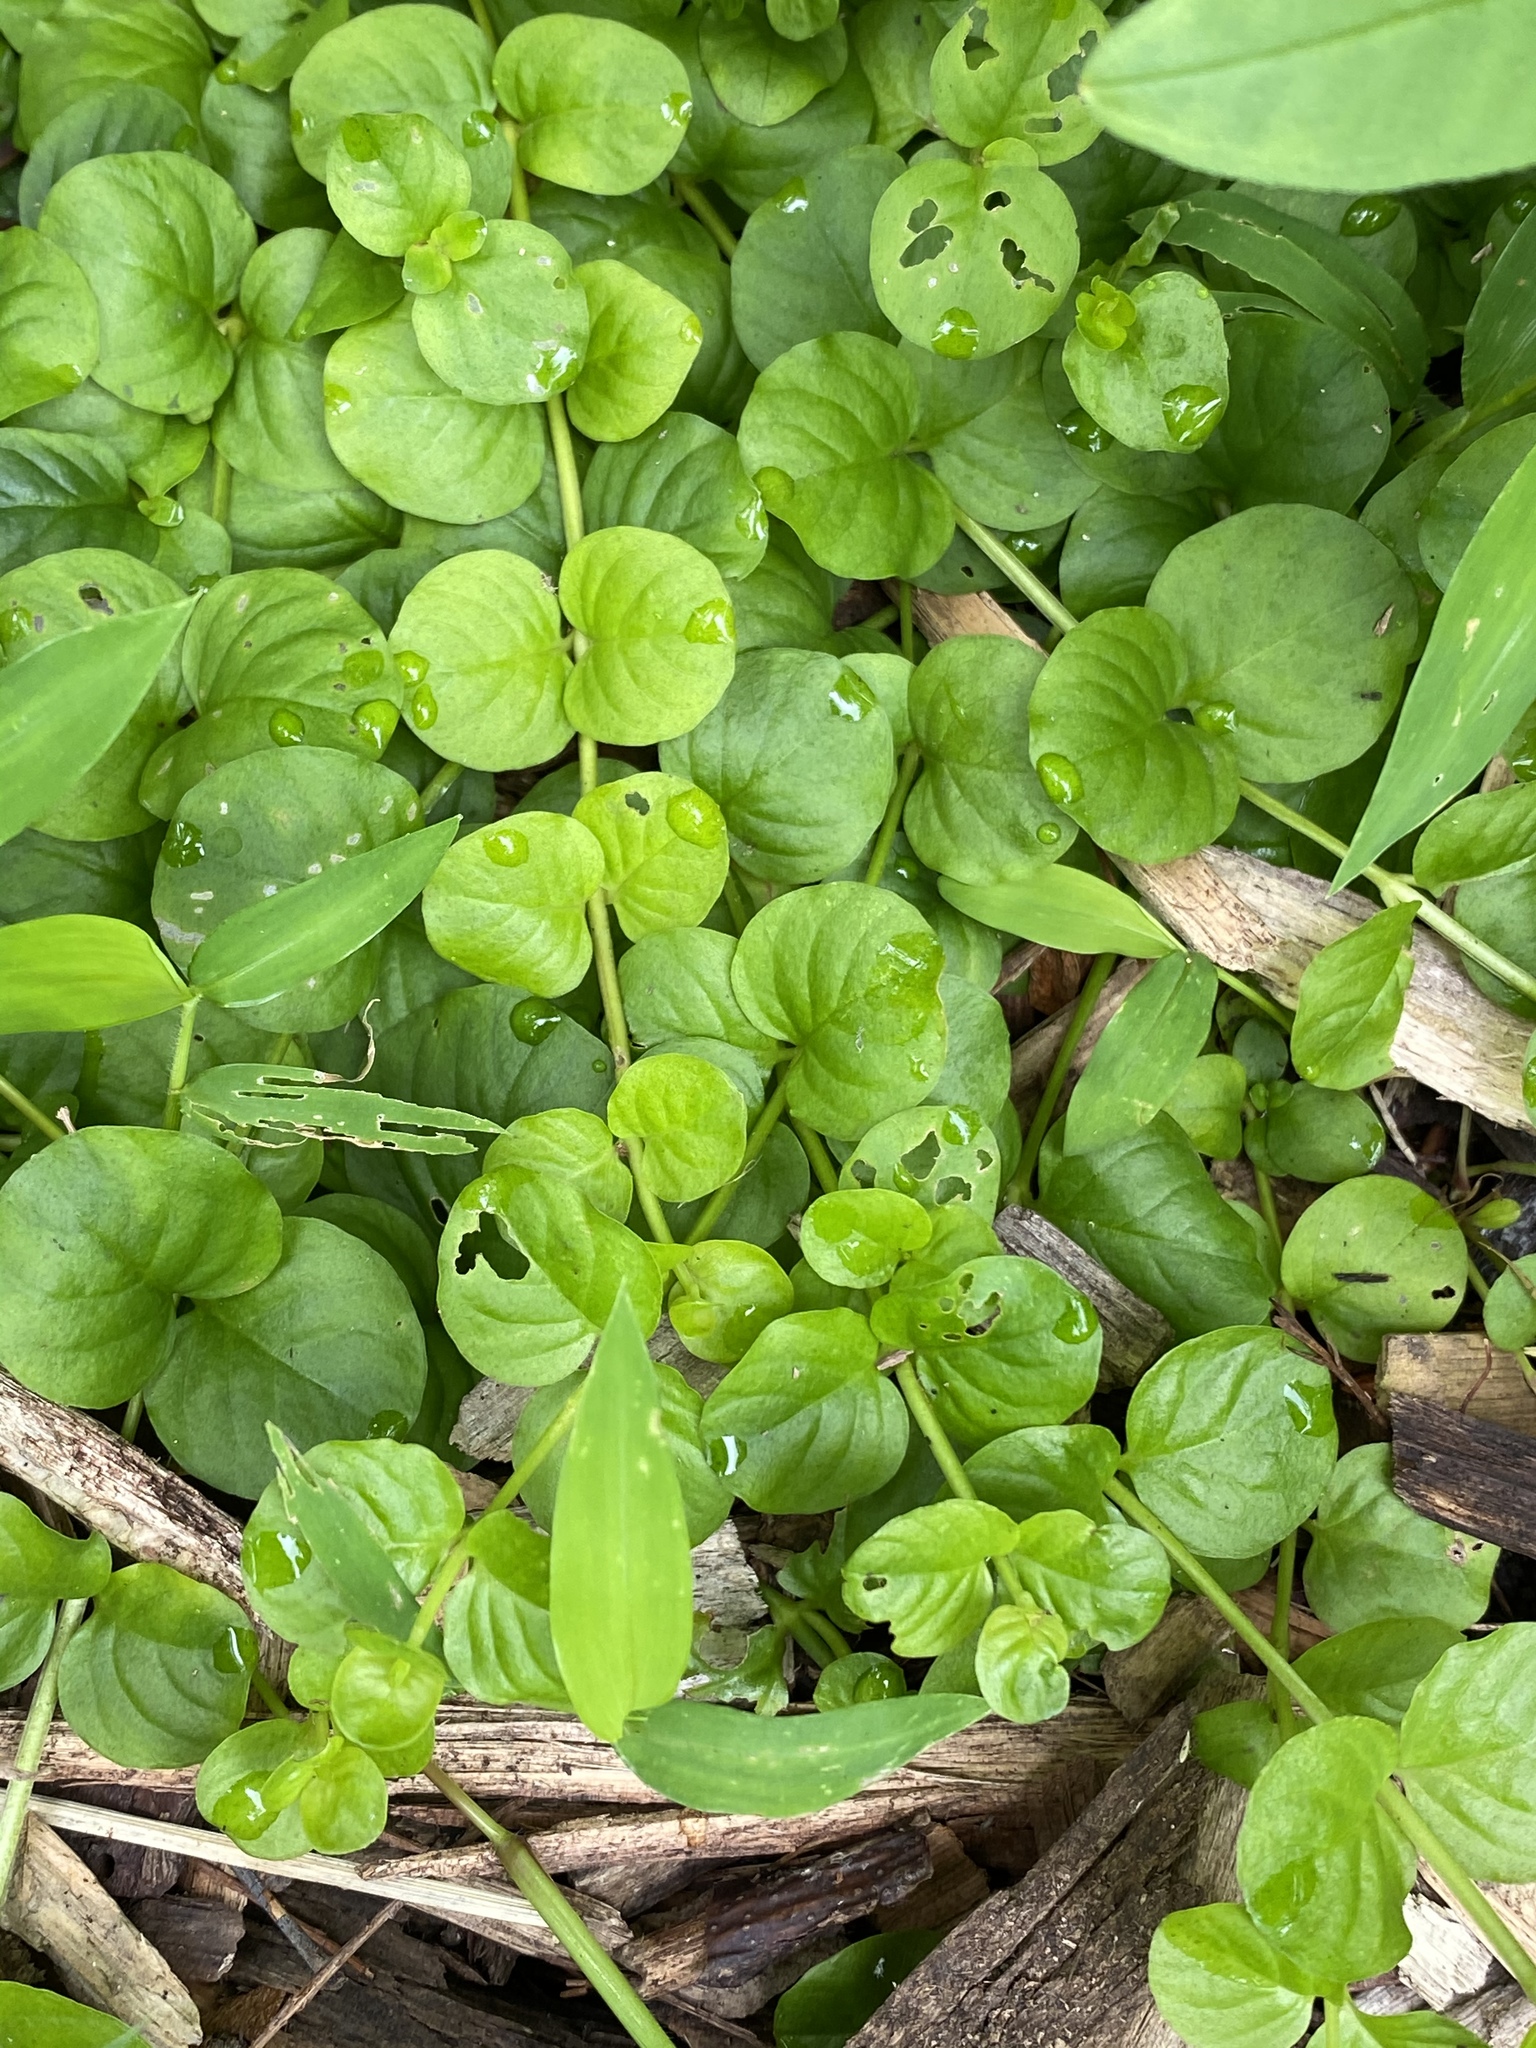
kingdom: Plantae
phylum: Tracheophyta
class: Magnoliopsida
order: Ericales
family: Primulaceae
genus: Lysimachia
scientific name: Lysimachia nummularia
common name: Moneywort
